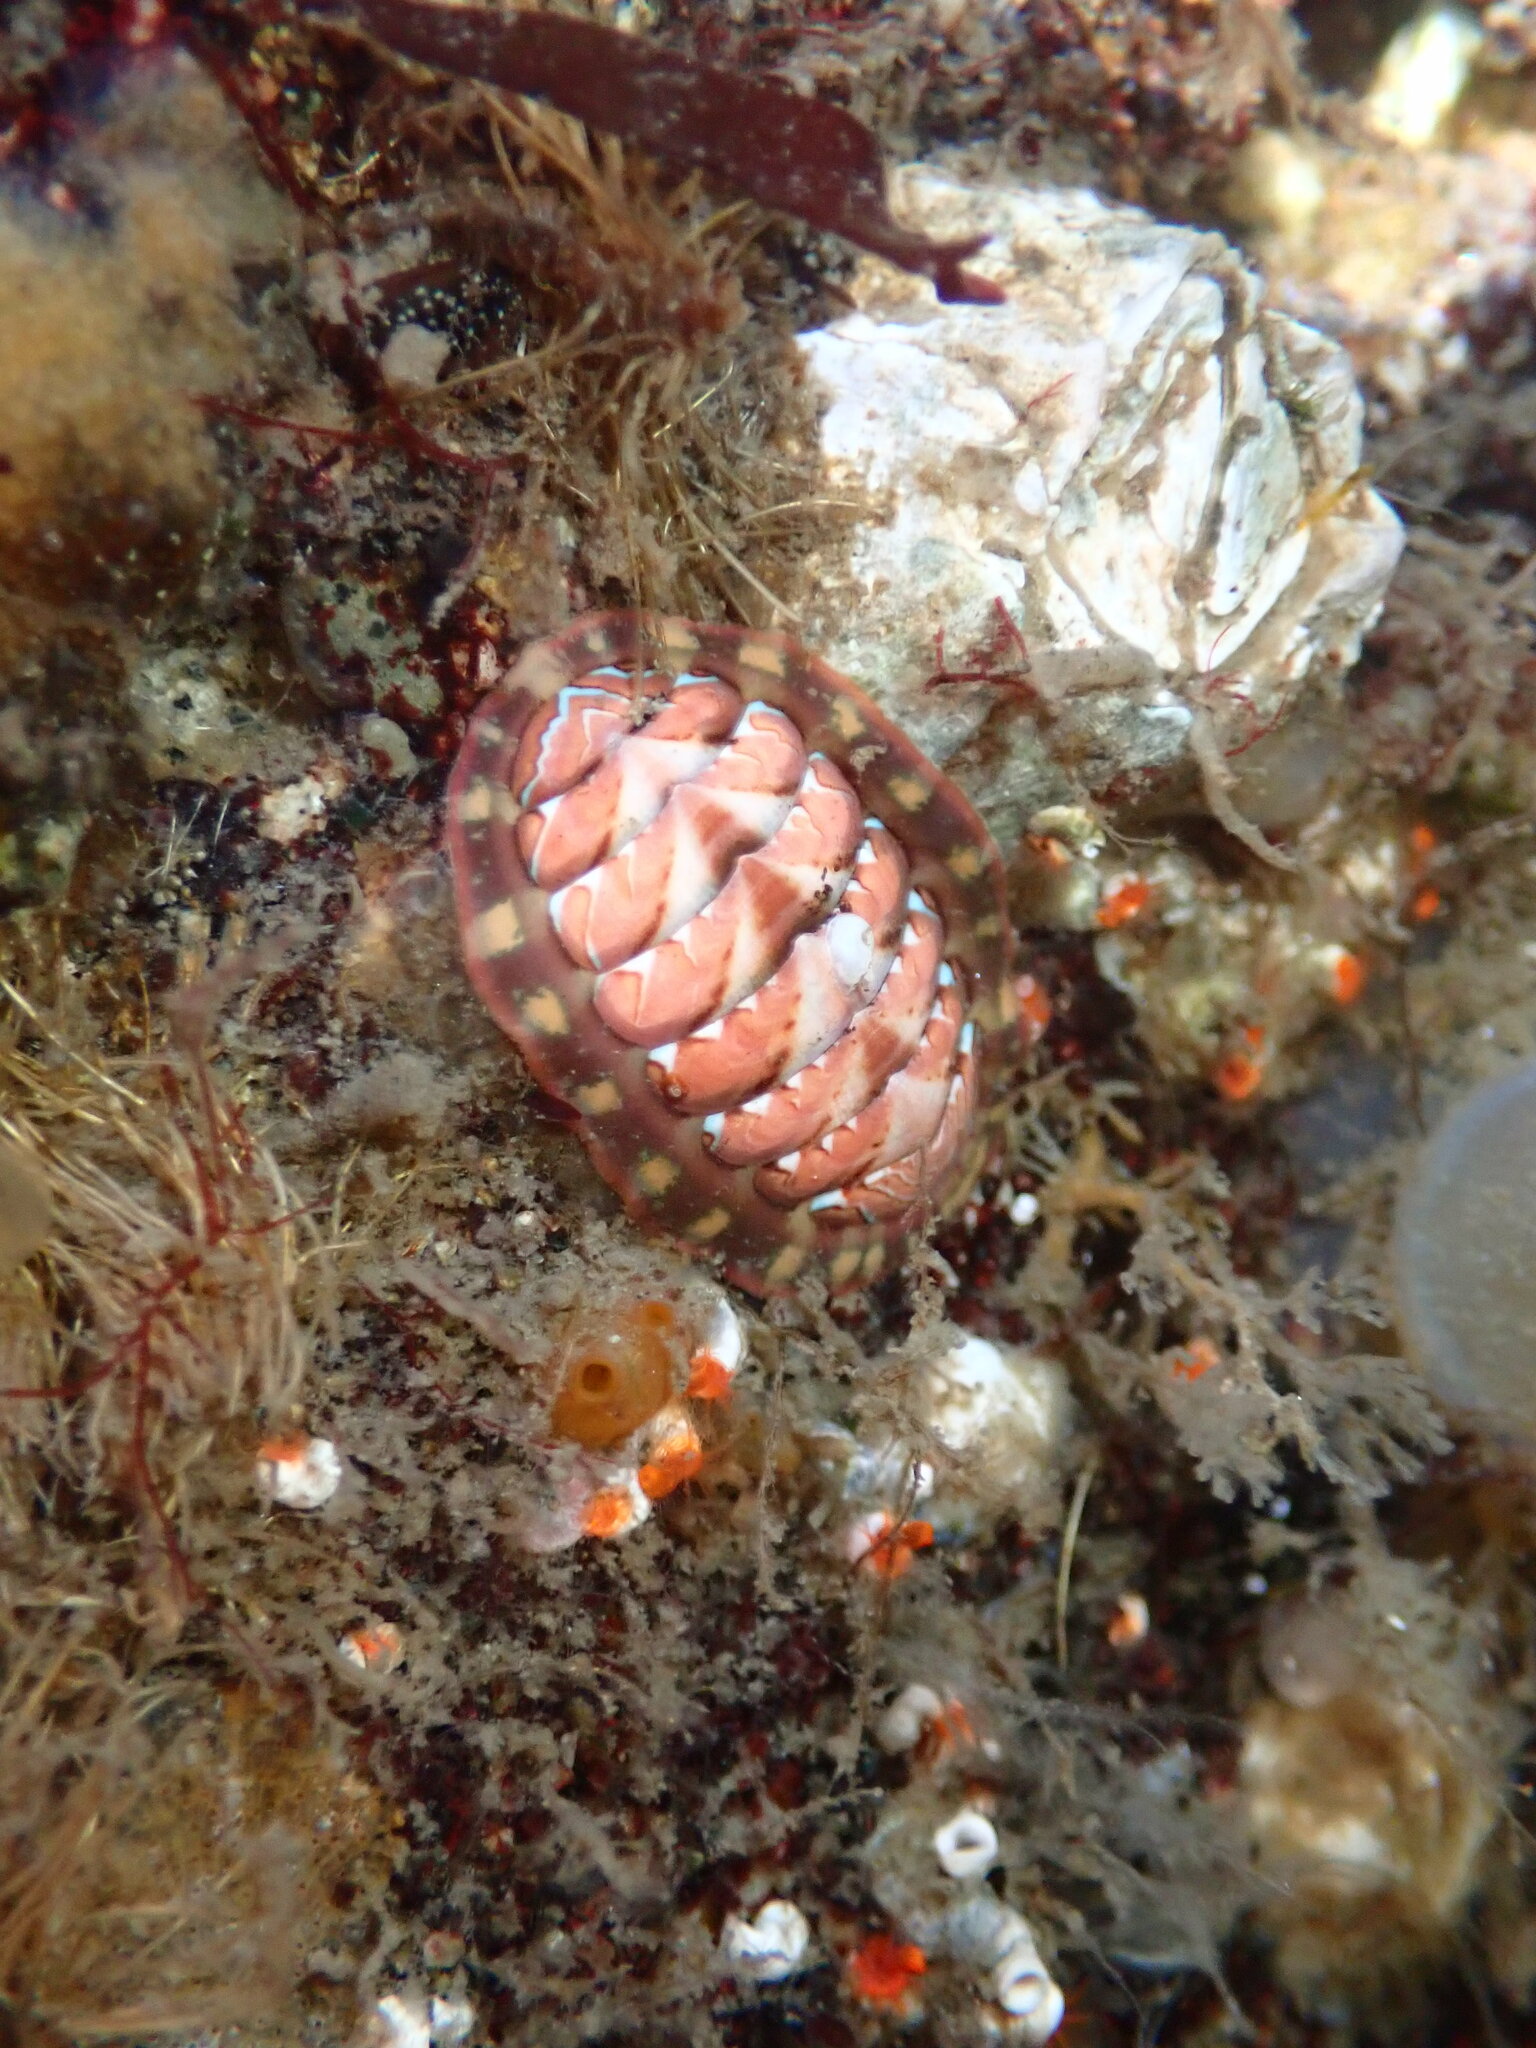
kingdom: Animalia
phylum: Mollusca
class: Polyplacophora
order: Chitonida
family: Tonicellidae
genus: Tonicella
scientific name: Tonicella lineata
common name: Lined chiton
